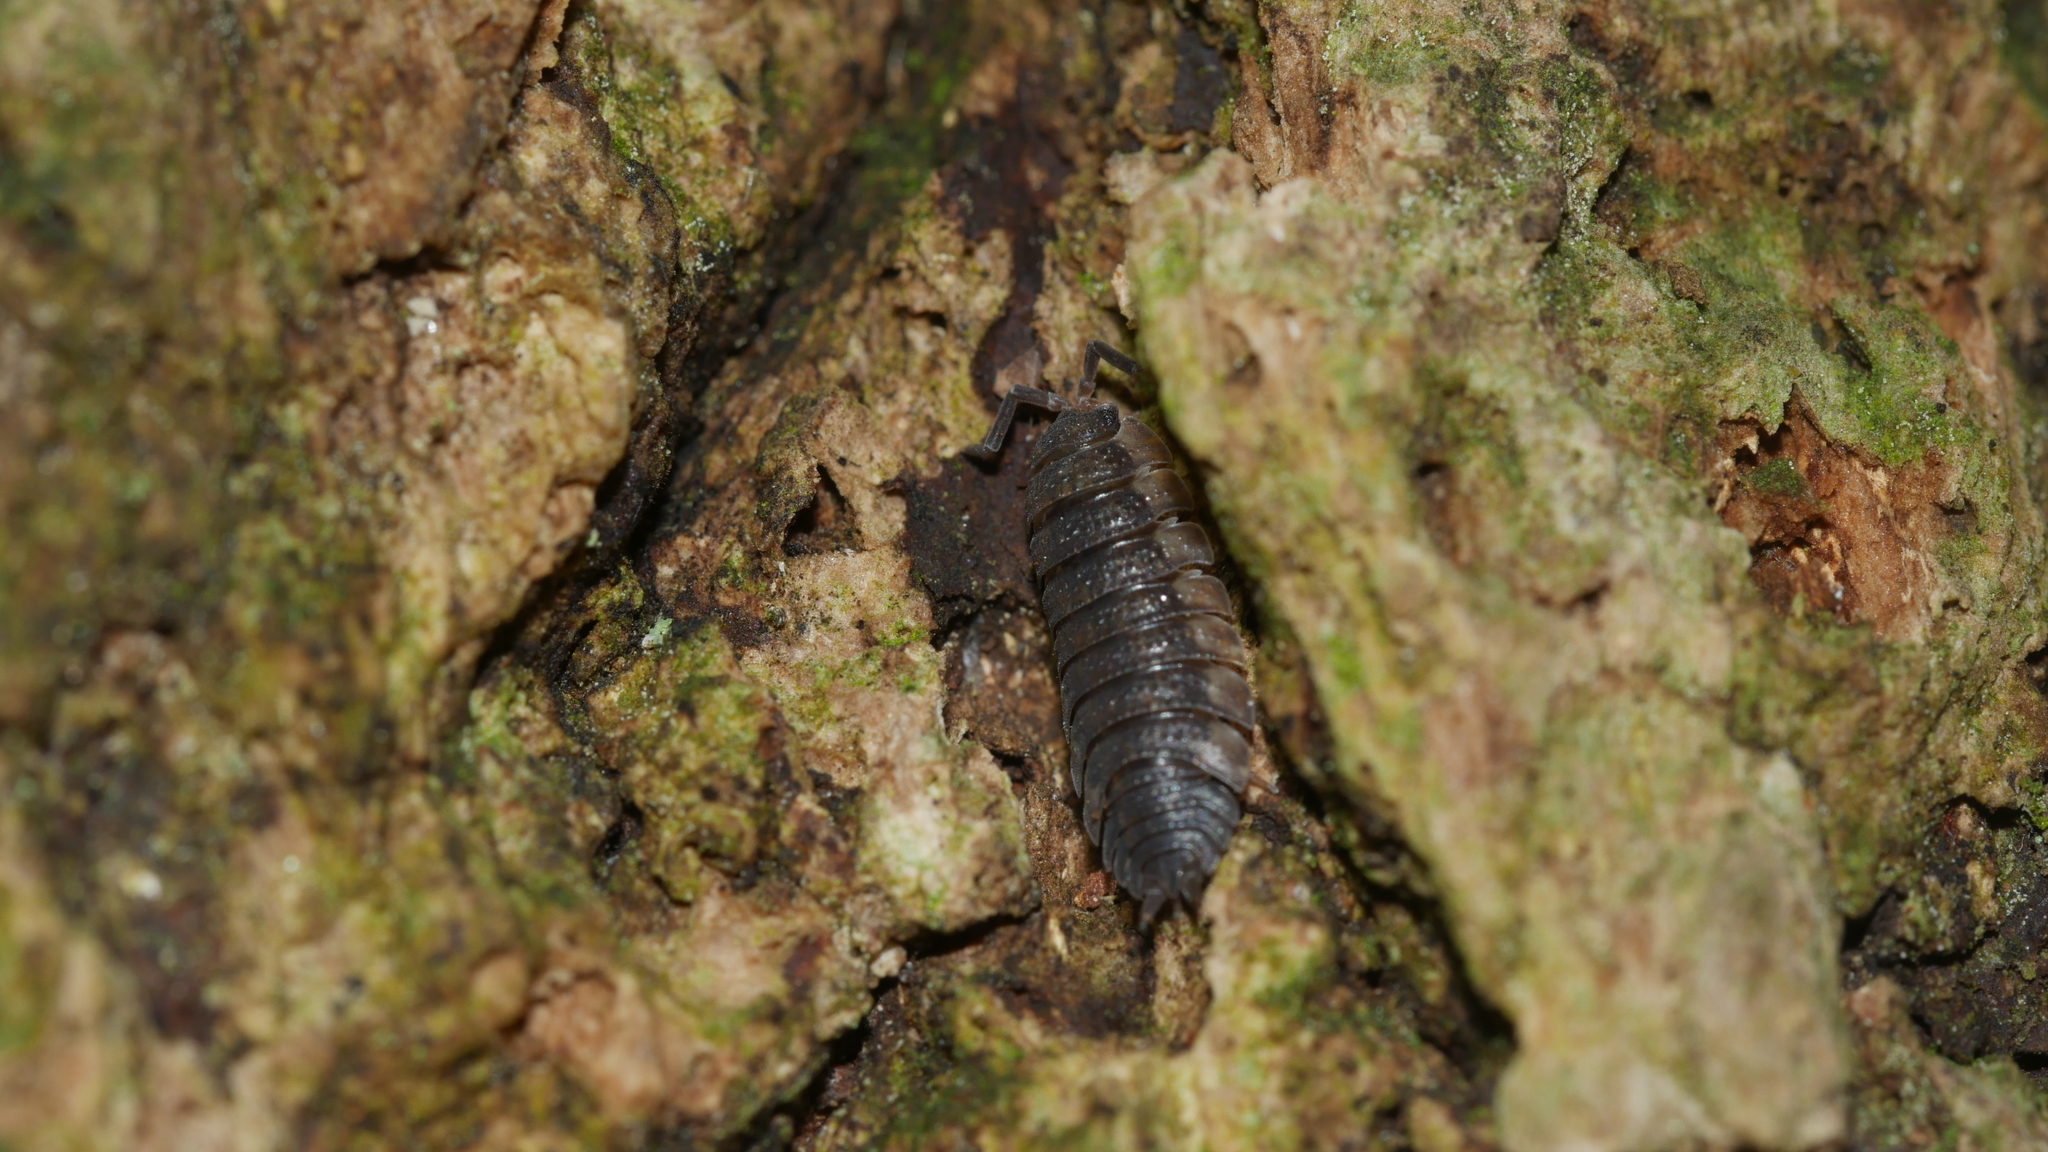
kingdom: Animalia
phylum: Arthropoda
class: Malacostraca
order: Isopoda
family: Porcellionidae
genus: Porcellio
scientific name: Porcellio scaber
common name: Common rough woodlouse
